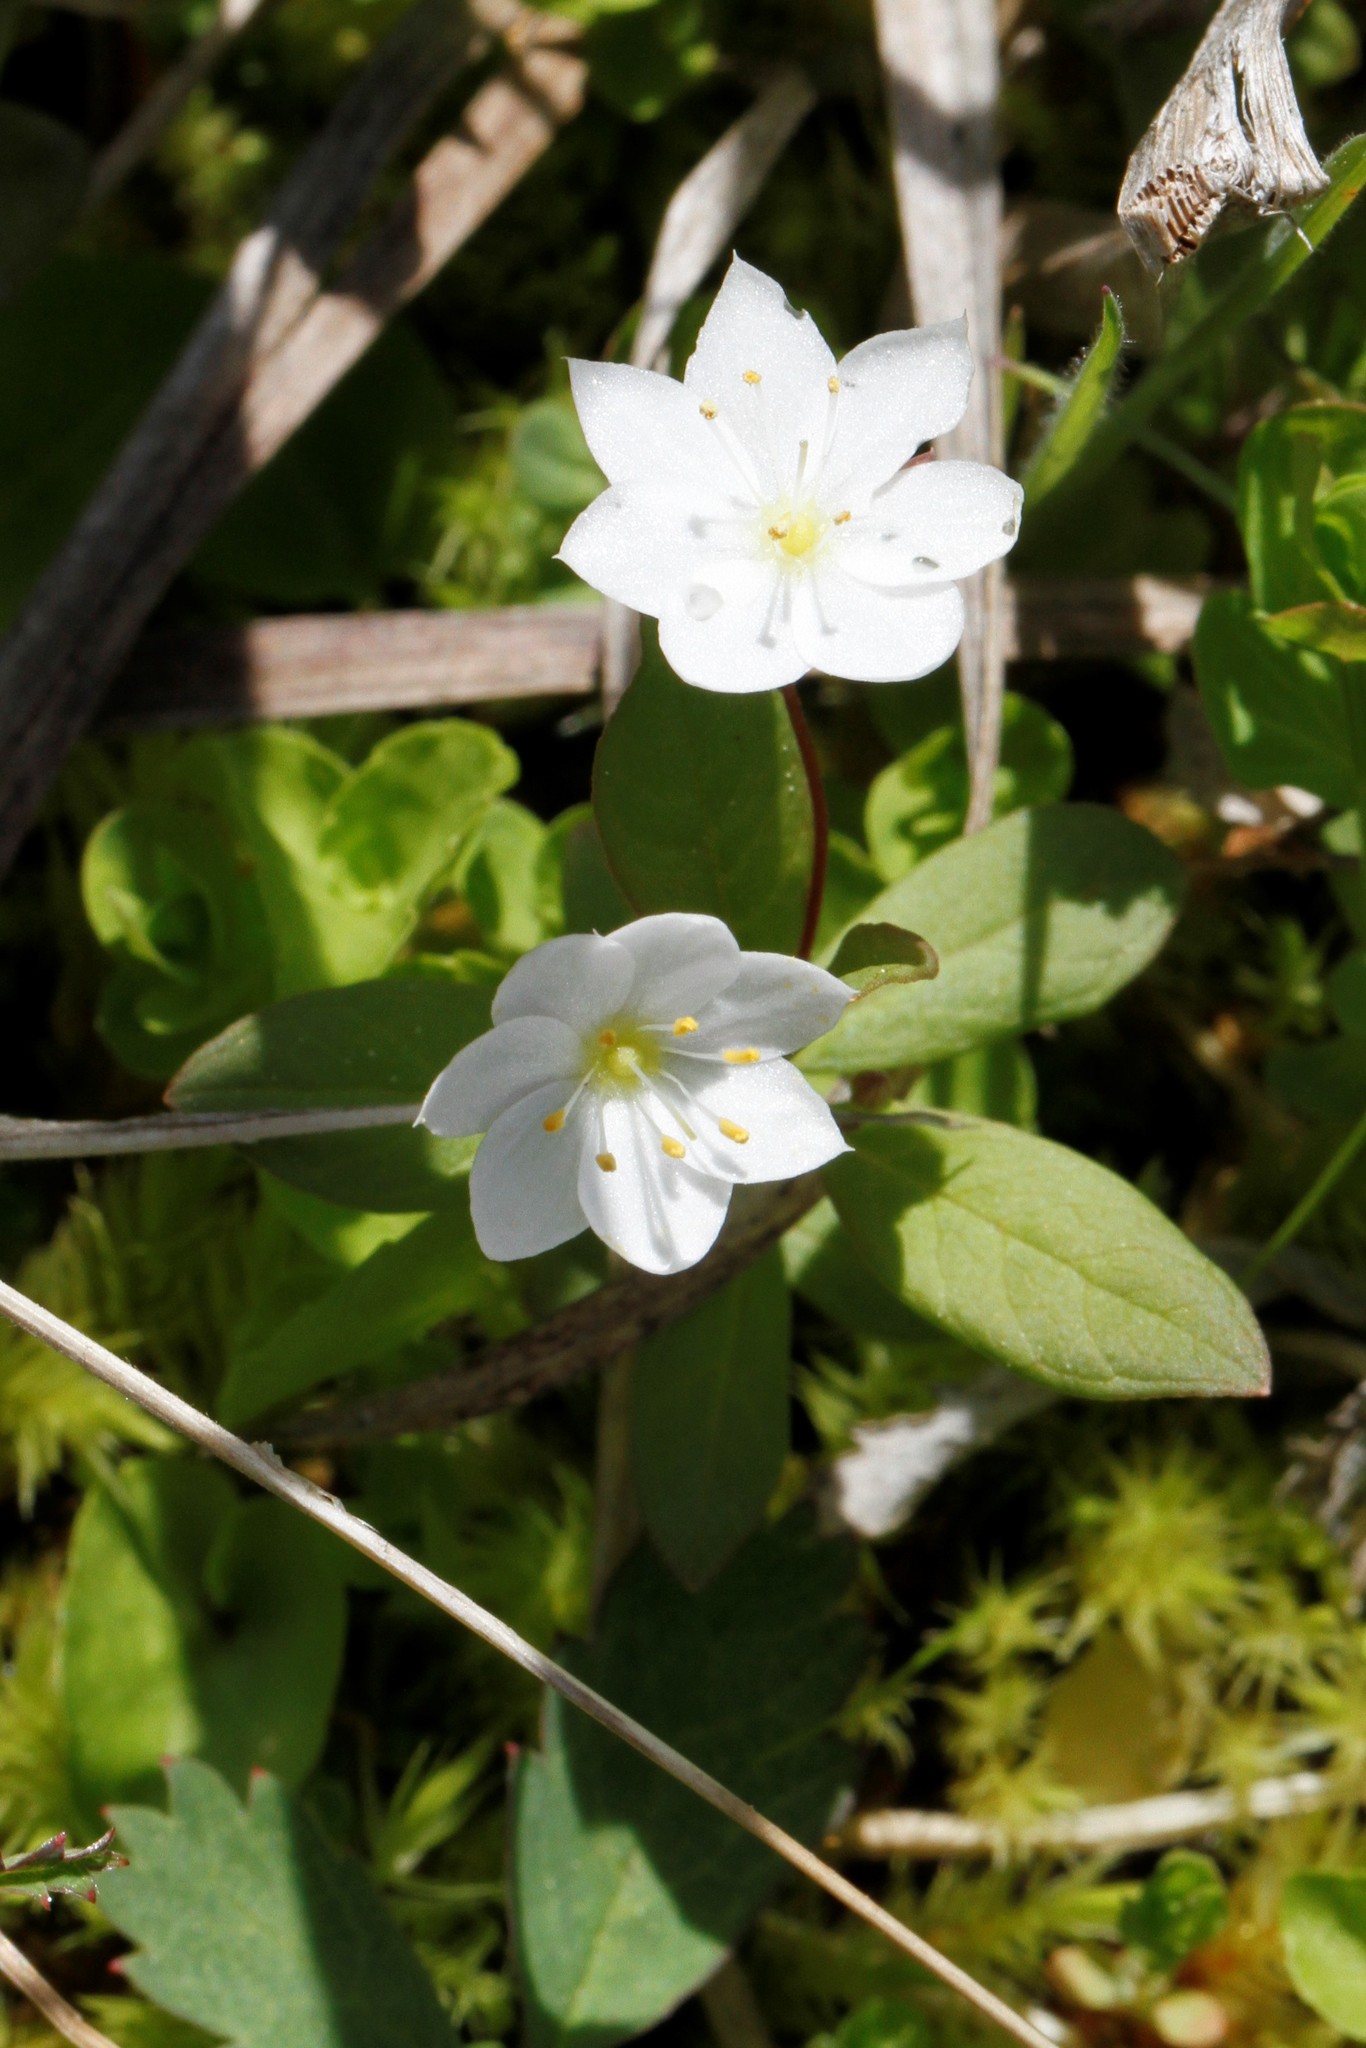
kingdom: Plantae
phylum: Tracheophyta
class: Magnoliopsida
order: Ericales
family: Primulaceae
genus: Lysimachia
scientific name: Lysimachia europaea
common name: Arctic starflower
